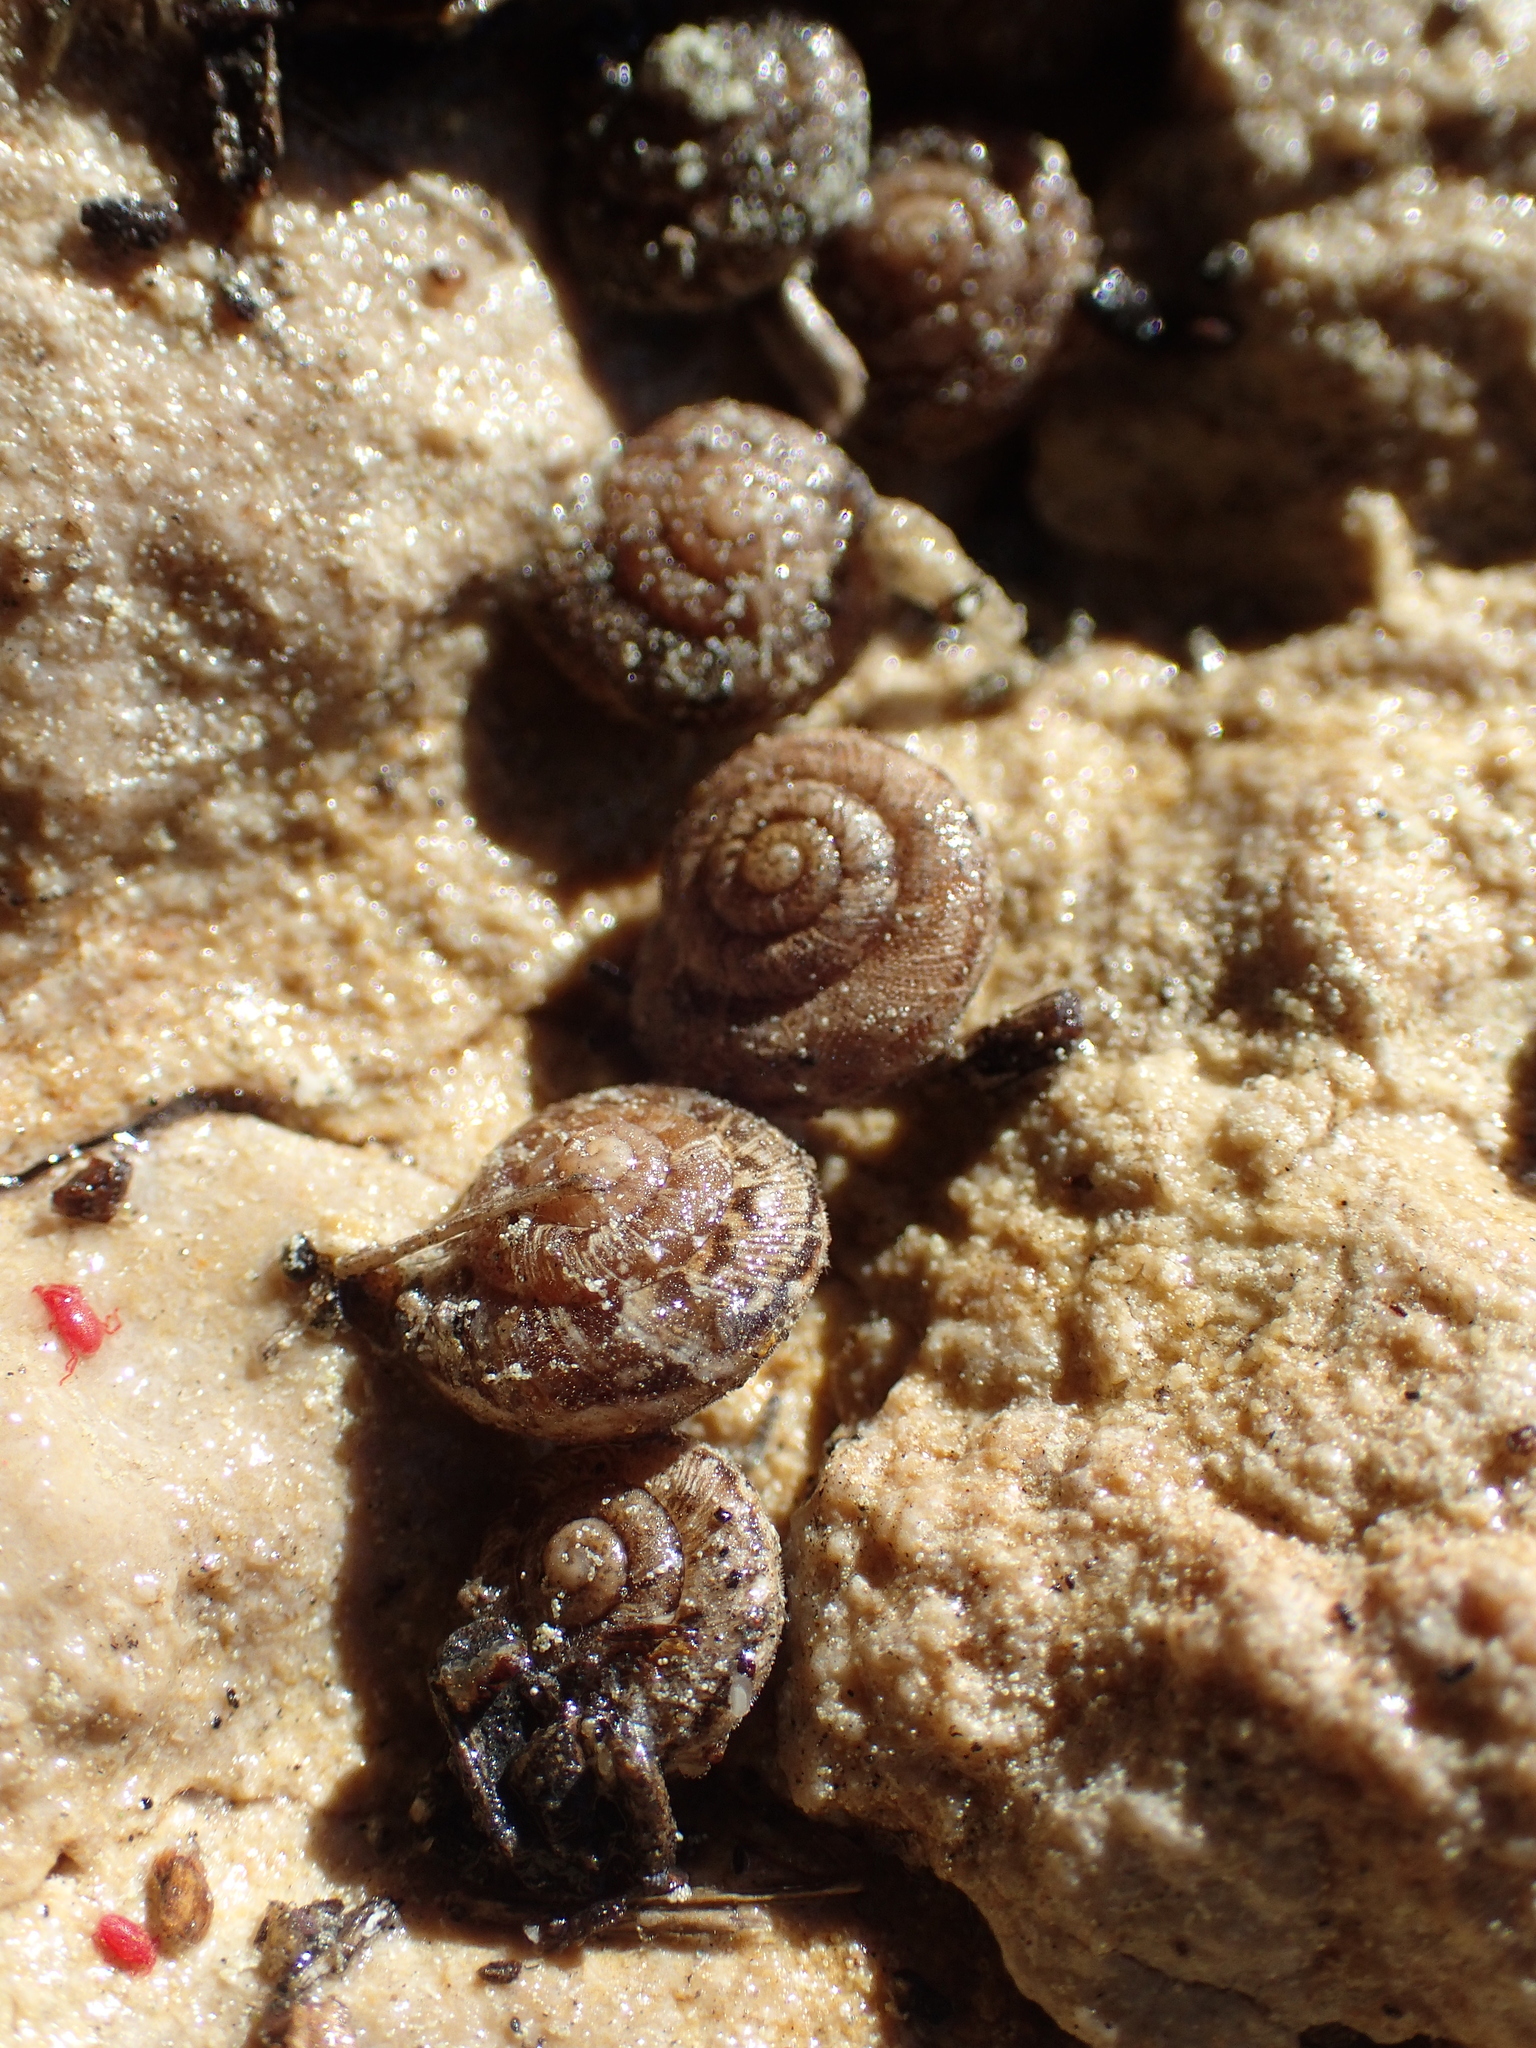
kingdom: Animalia
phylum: Mollusca
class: Gastropoda
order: Stylommatophora
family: Geomitridae
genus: Microxeromagna
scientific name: Microxeromagna lowei
